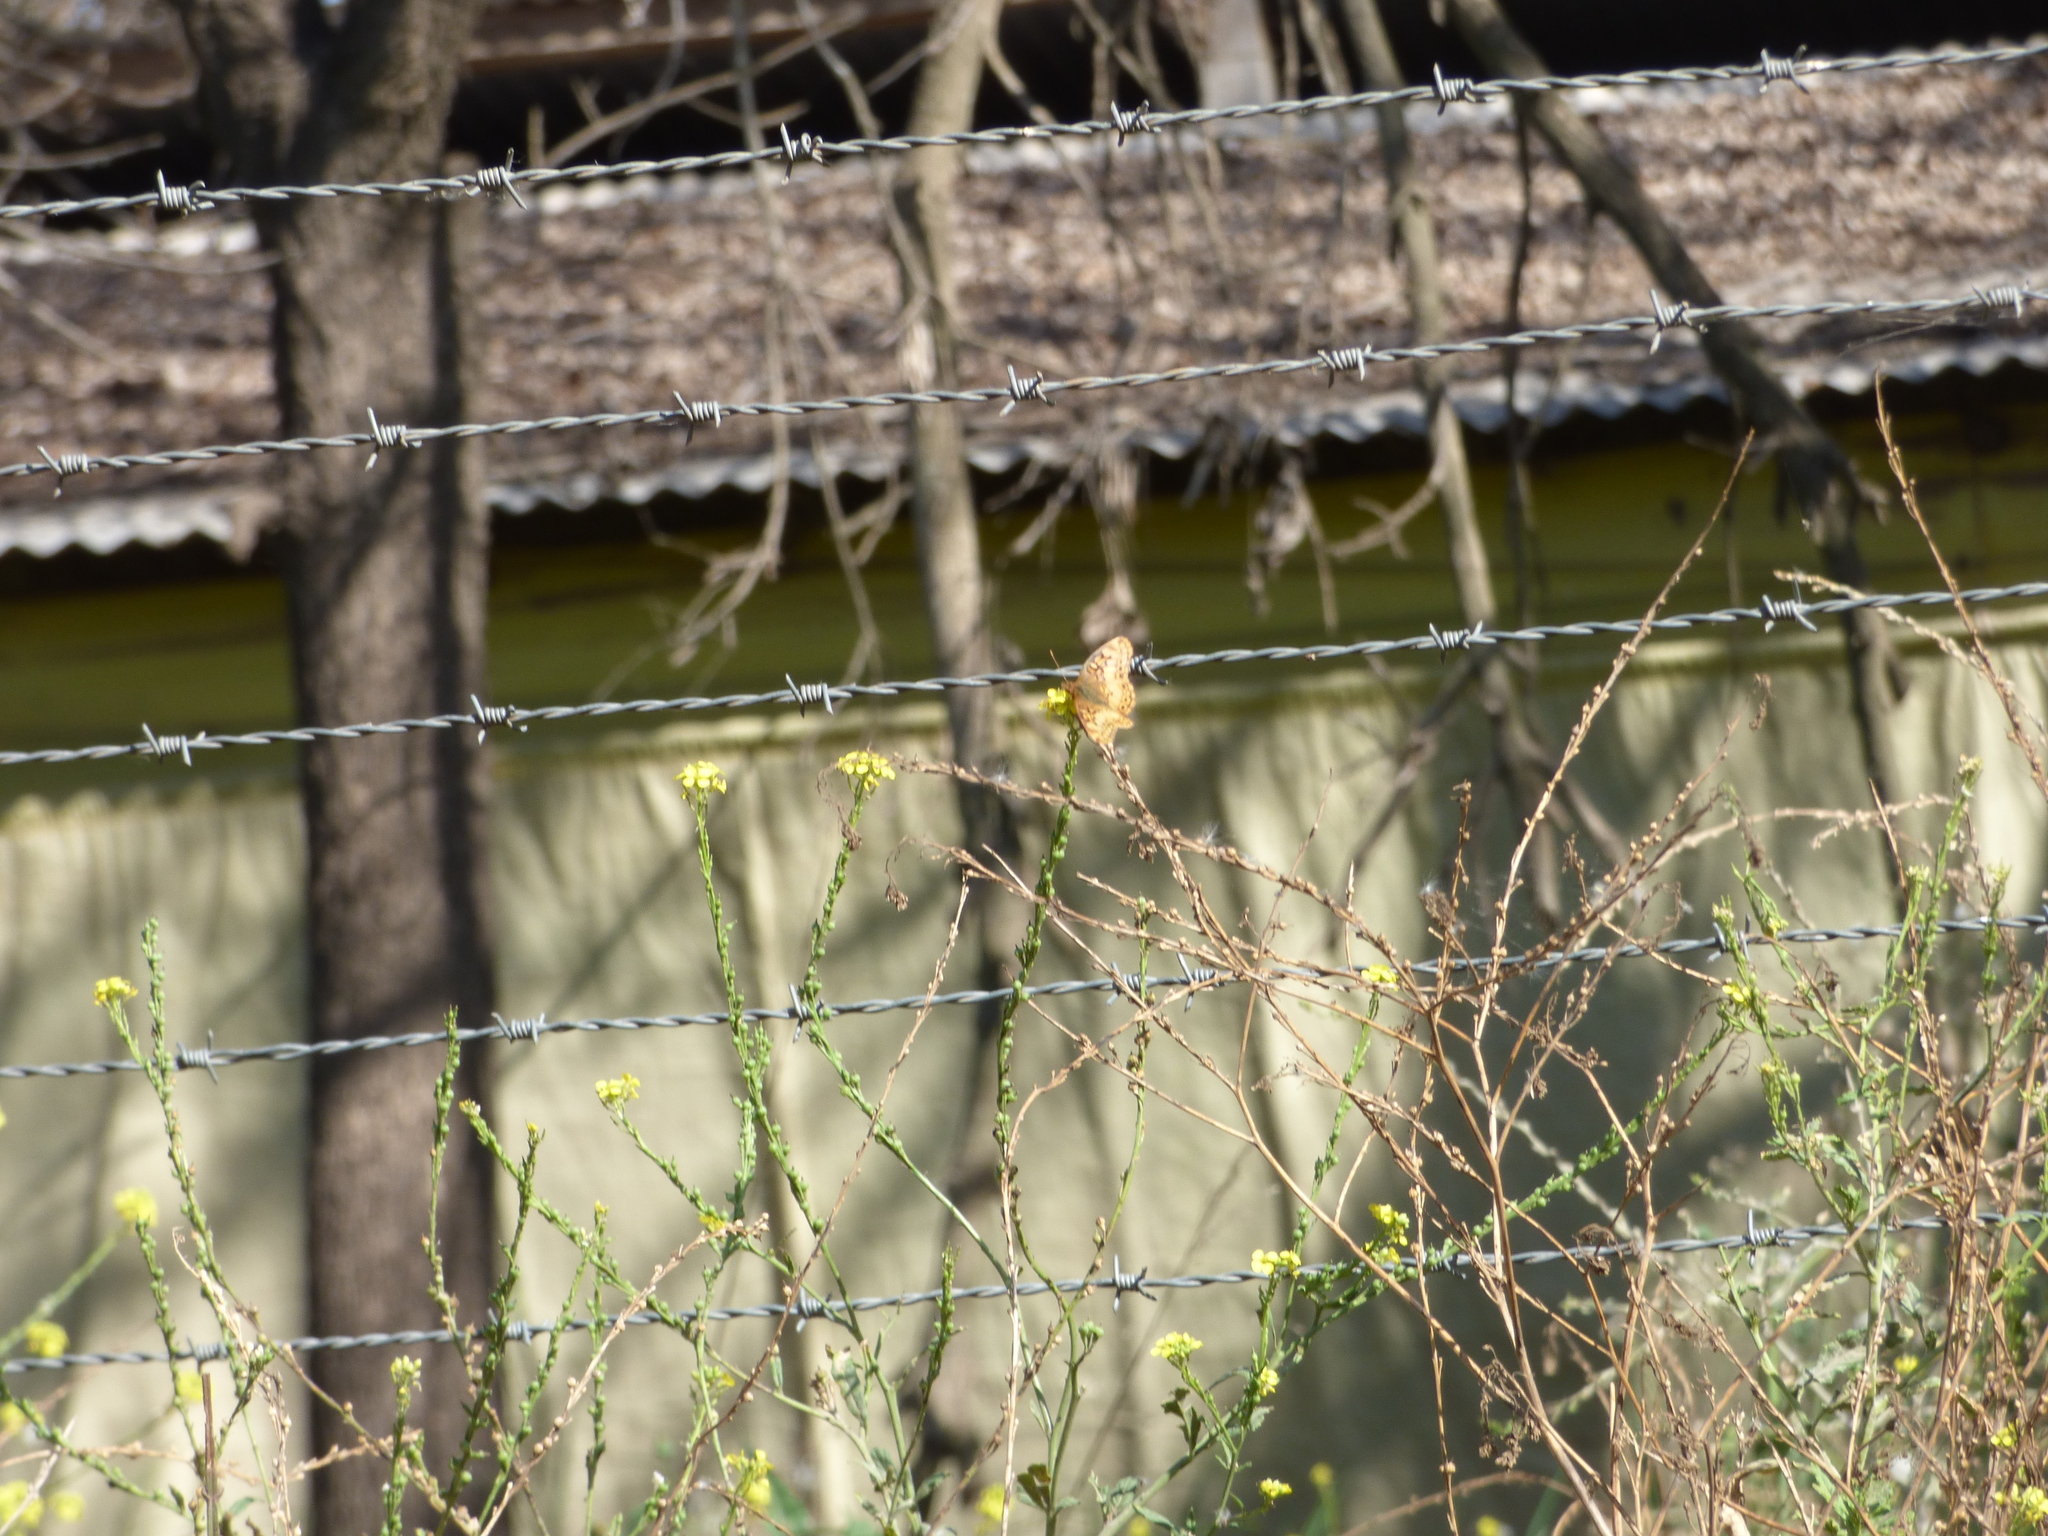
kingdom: Animalia
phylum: Arthropoda
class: Insecta
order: Lepidoptera
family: Nymphalidae
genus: Euptoieta
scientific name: Euptoieta hortensia
